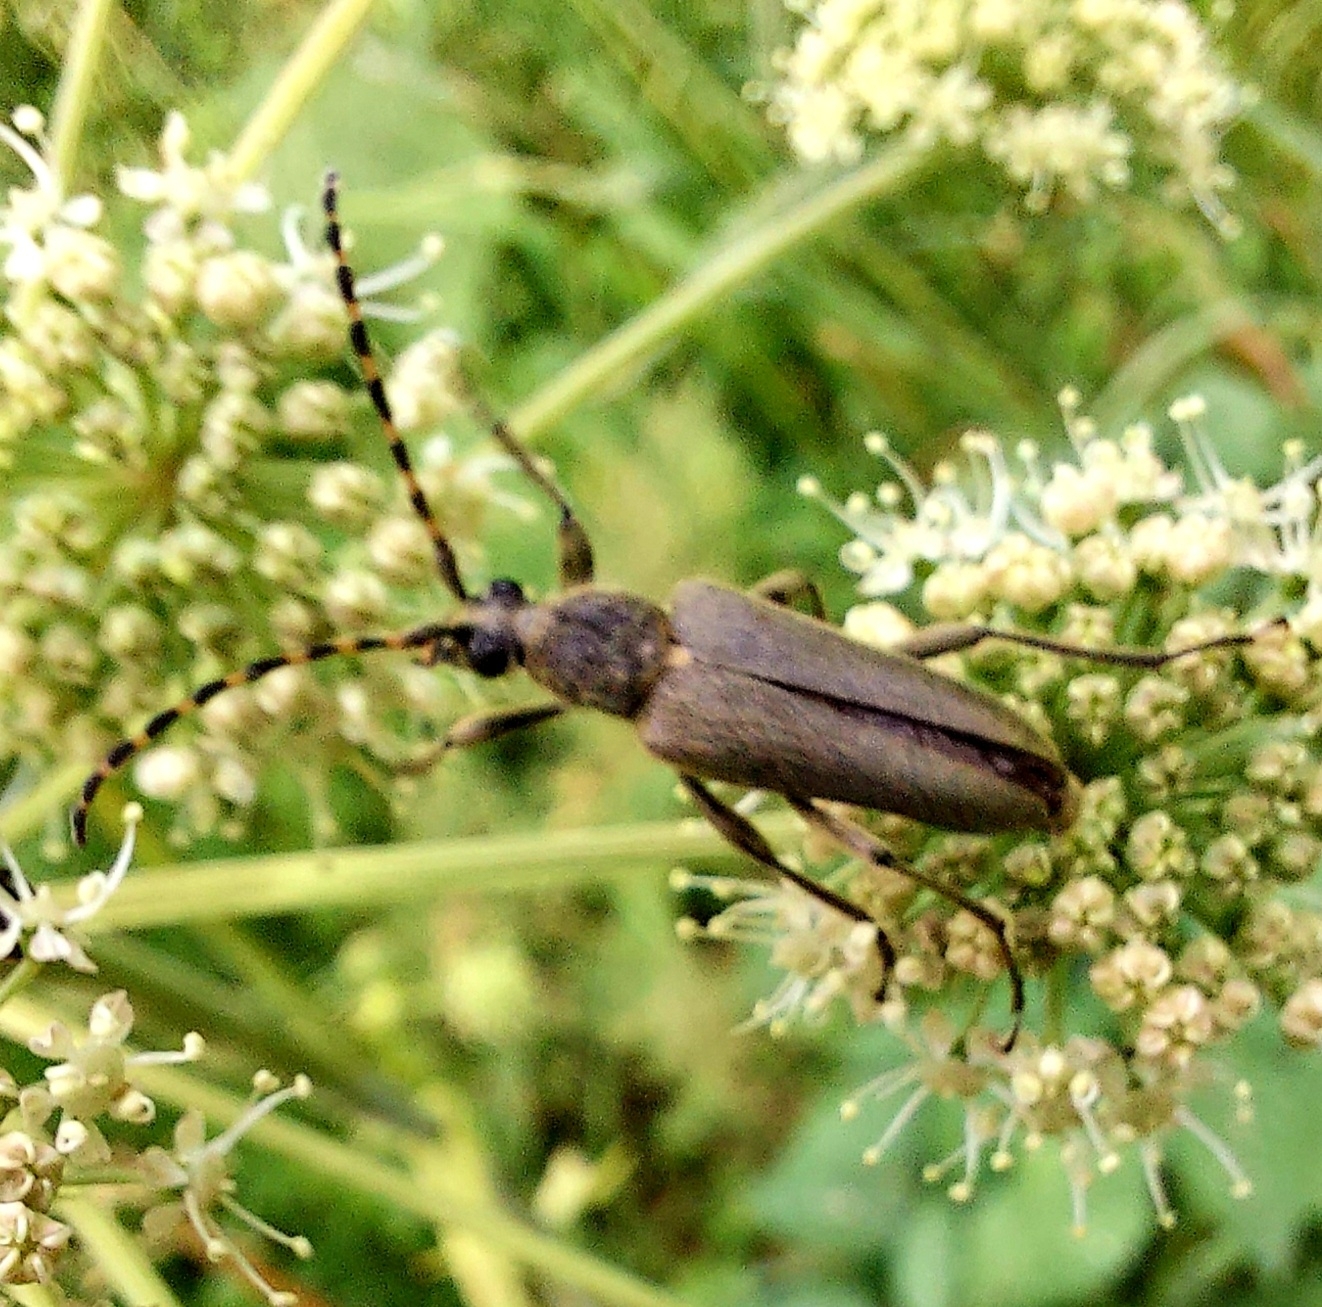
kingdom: Animalia
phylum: Arthropoda
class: Insecta
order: Coleoptera
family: Cerambycidae
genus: Lepturobosca
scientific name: Lepturobosca virens
